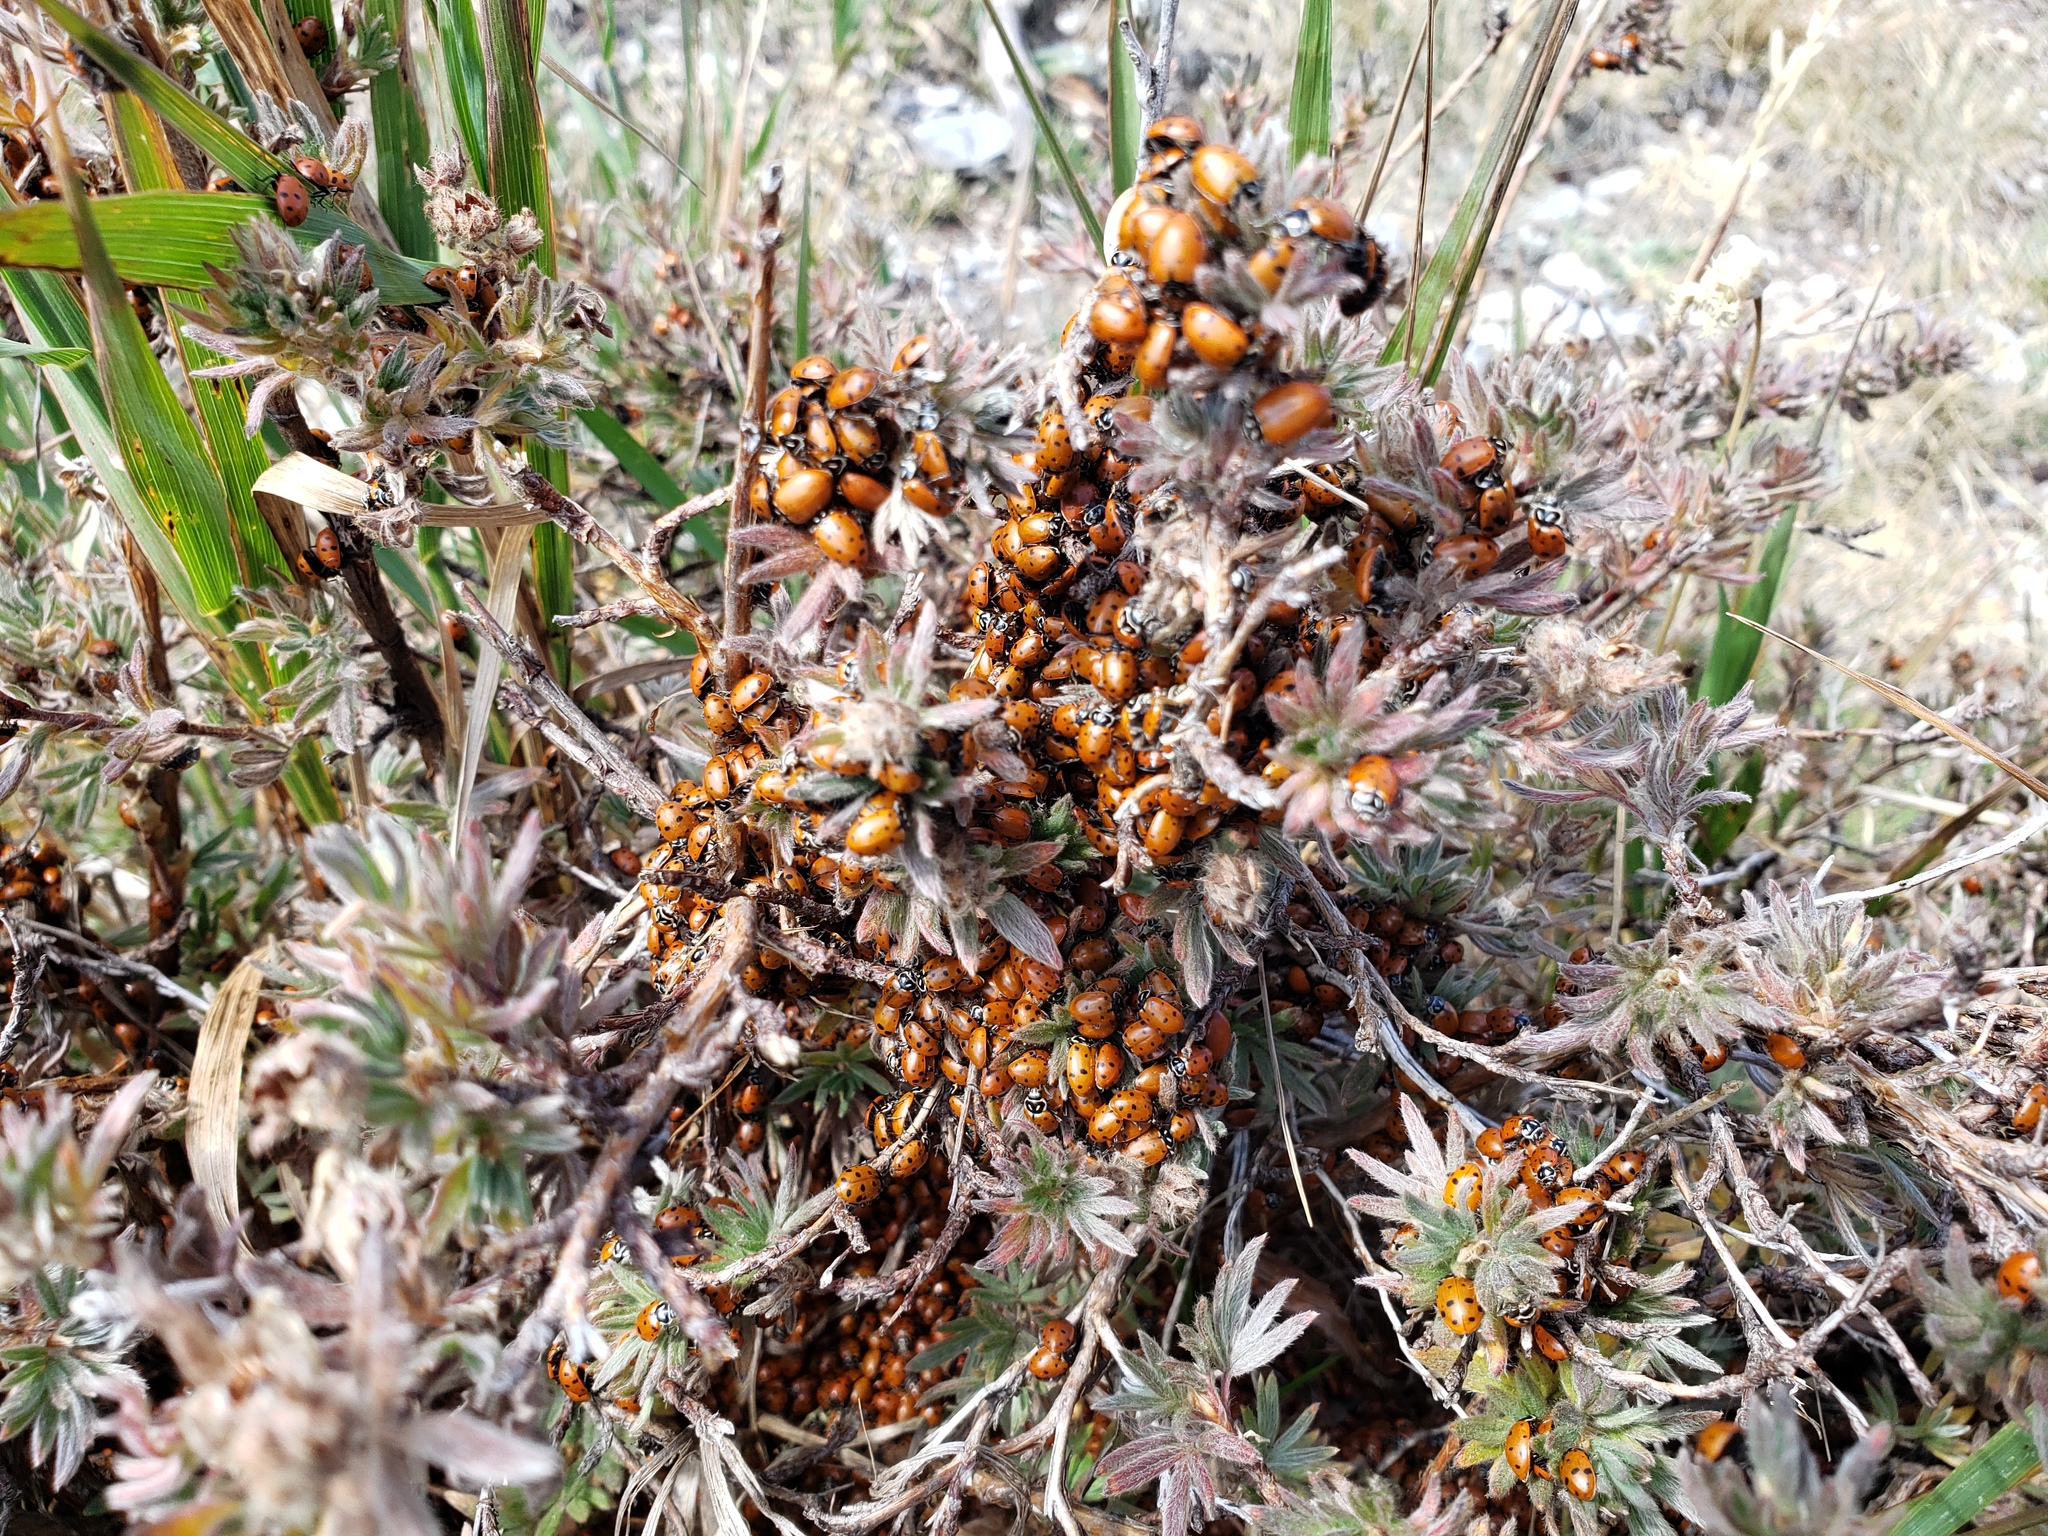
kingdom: Animalia
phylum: Arthropoda
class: Insecta
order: Coleoptera
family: Coccinellidae
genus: Hippodamia
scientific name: Hippodamia convergens
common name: Convergent lady beetle
